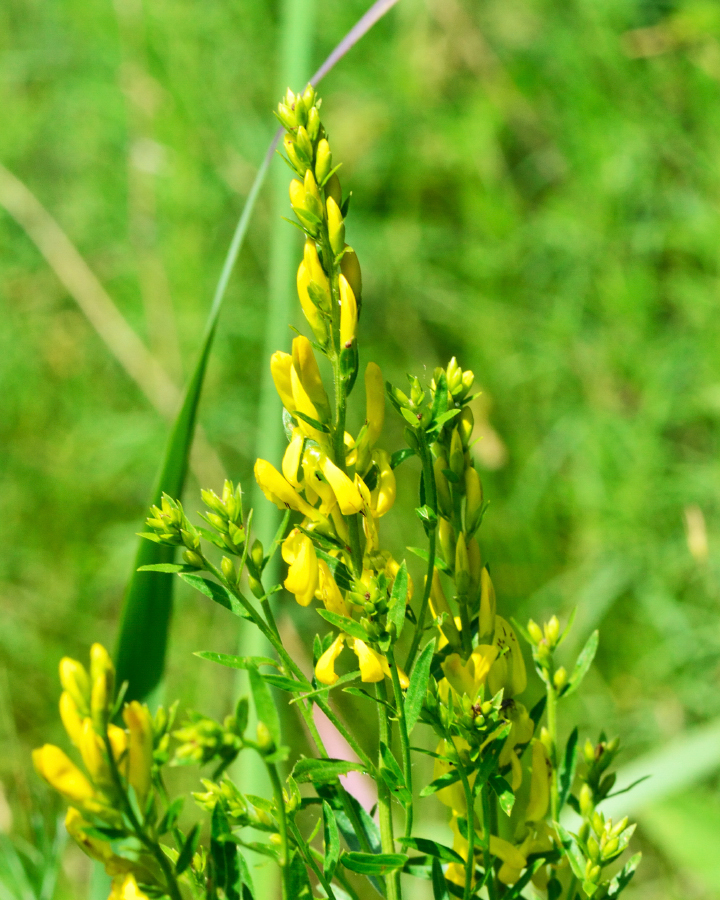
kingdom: Plantae
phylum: Tracheophyta
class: Magnoliopsida
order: Fabales
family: Fabaceae
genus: Genista
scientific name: Genista tinctoria
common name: Dyer's greenweed
